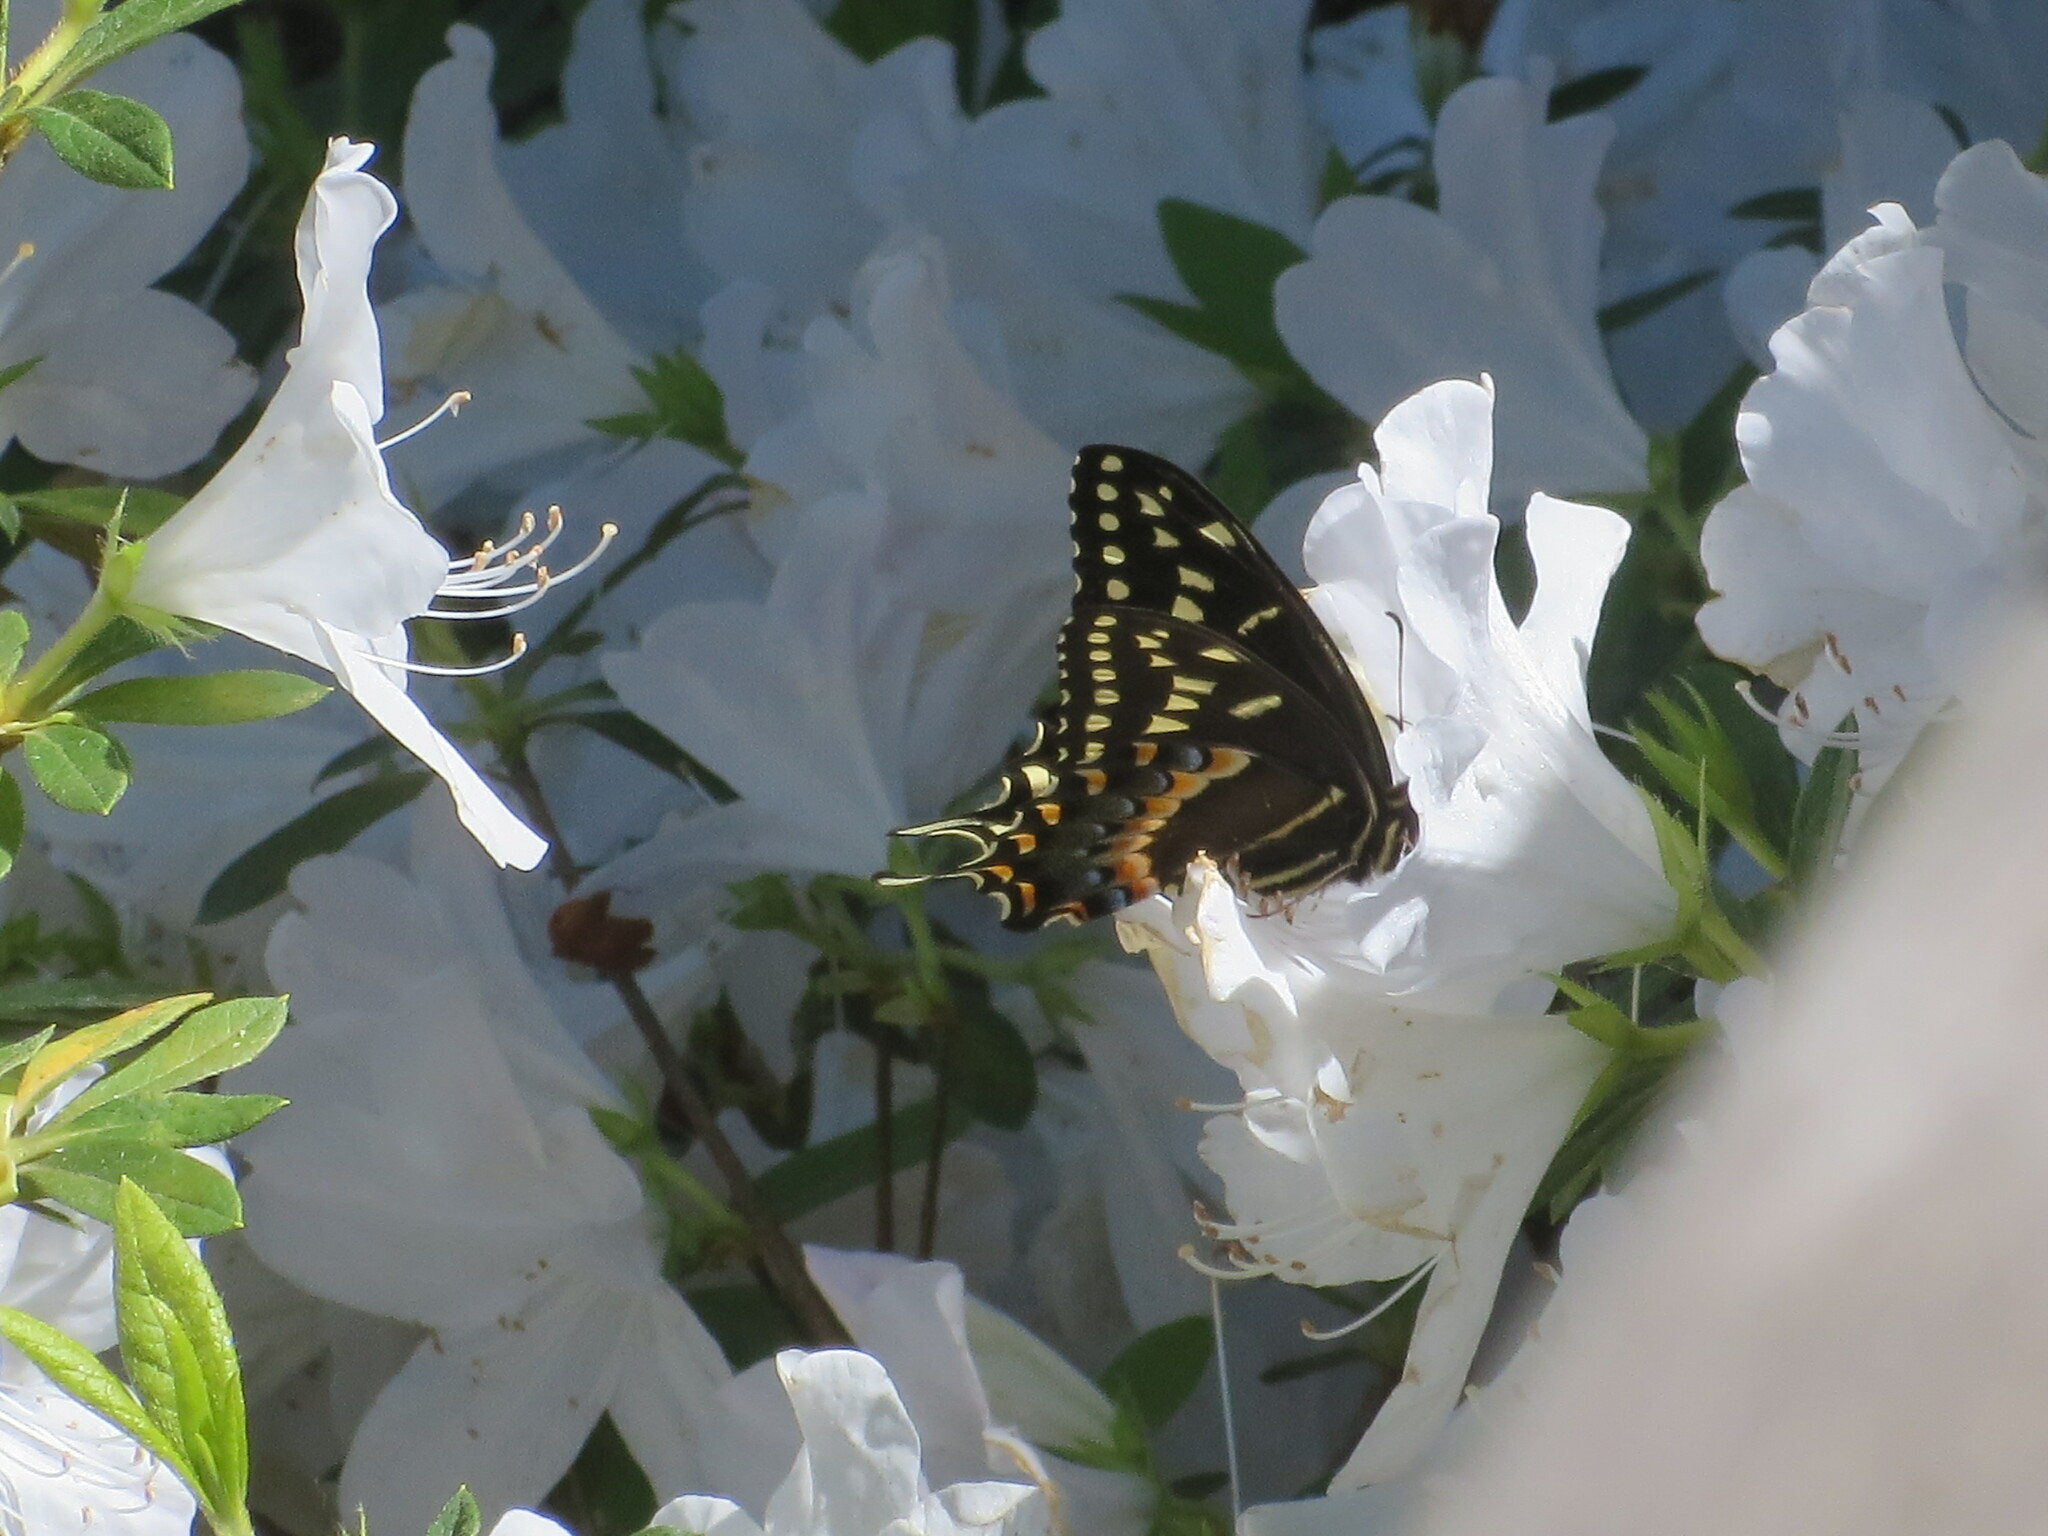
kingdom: Animalia
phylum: Arthropoda
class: Insecta
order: Lepidoptera
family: Papilionidae
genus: Papilio
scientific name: Papilio palamedes
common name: Palamedes swallowtail
